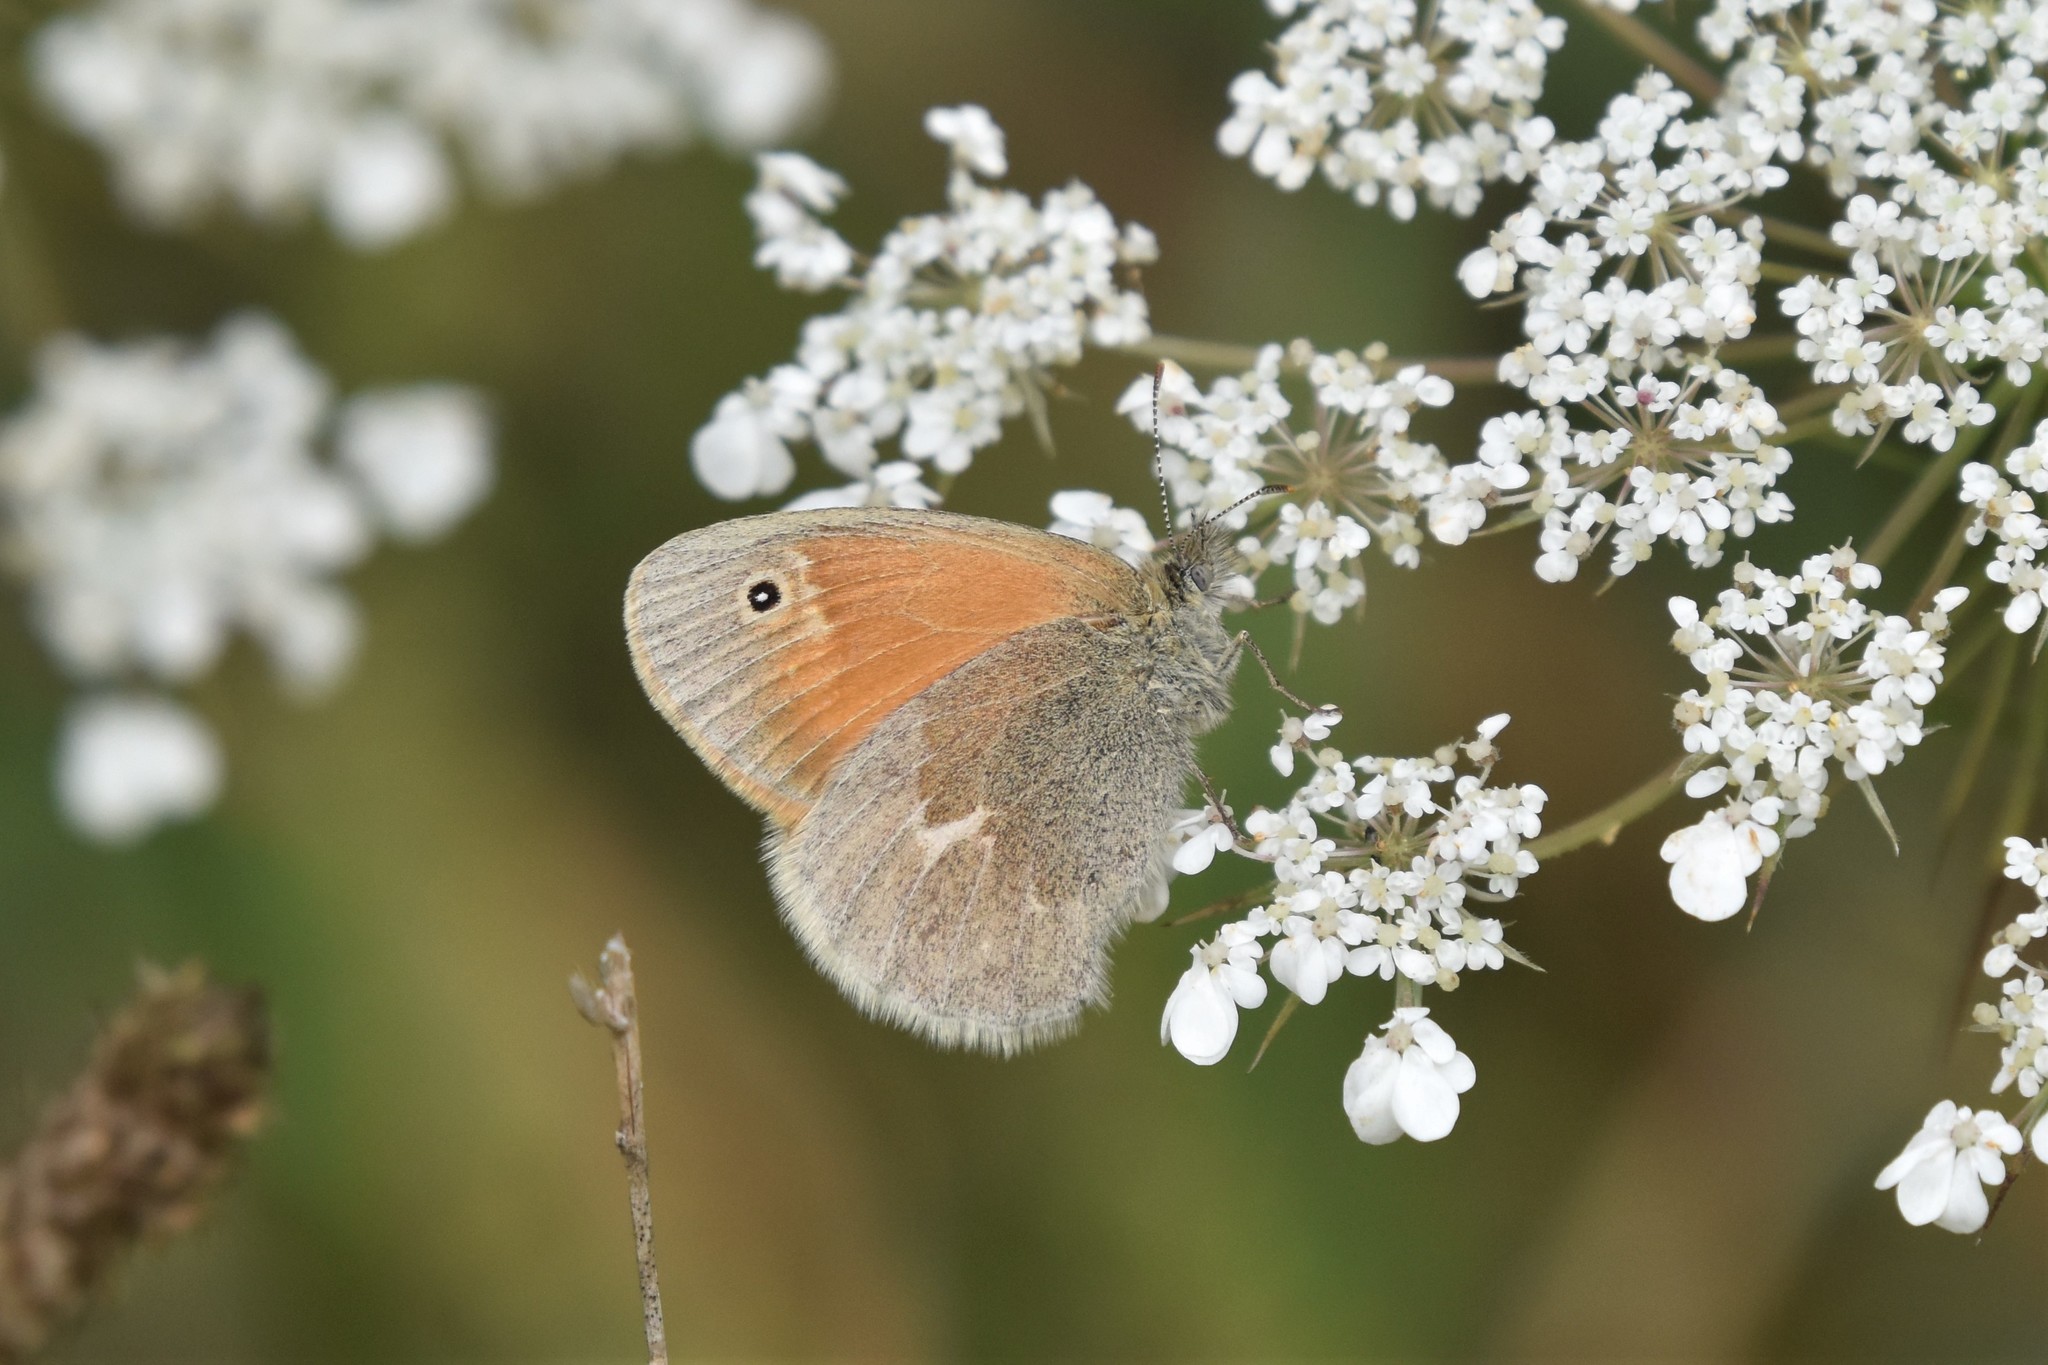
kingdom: Animalia
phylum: Arthropoda
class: Insecta
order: Lepidoptera
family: Nymphalidae
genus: Coenonympha
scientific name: Coenonympha california
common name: Common ringlet
